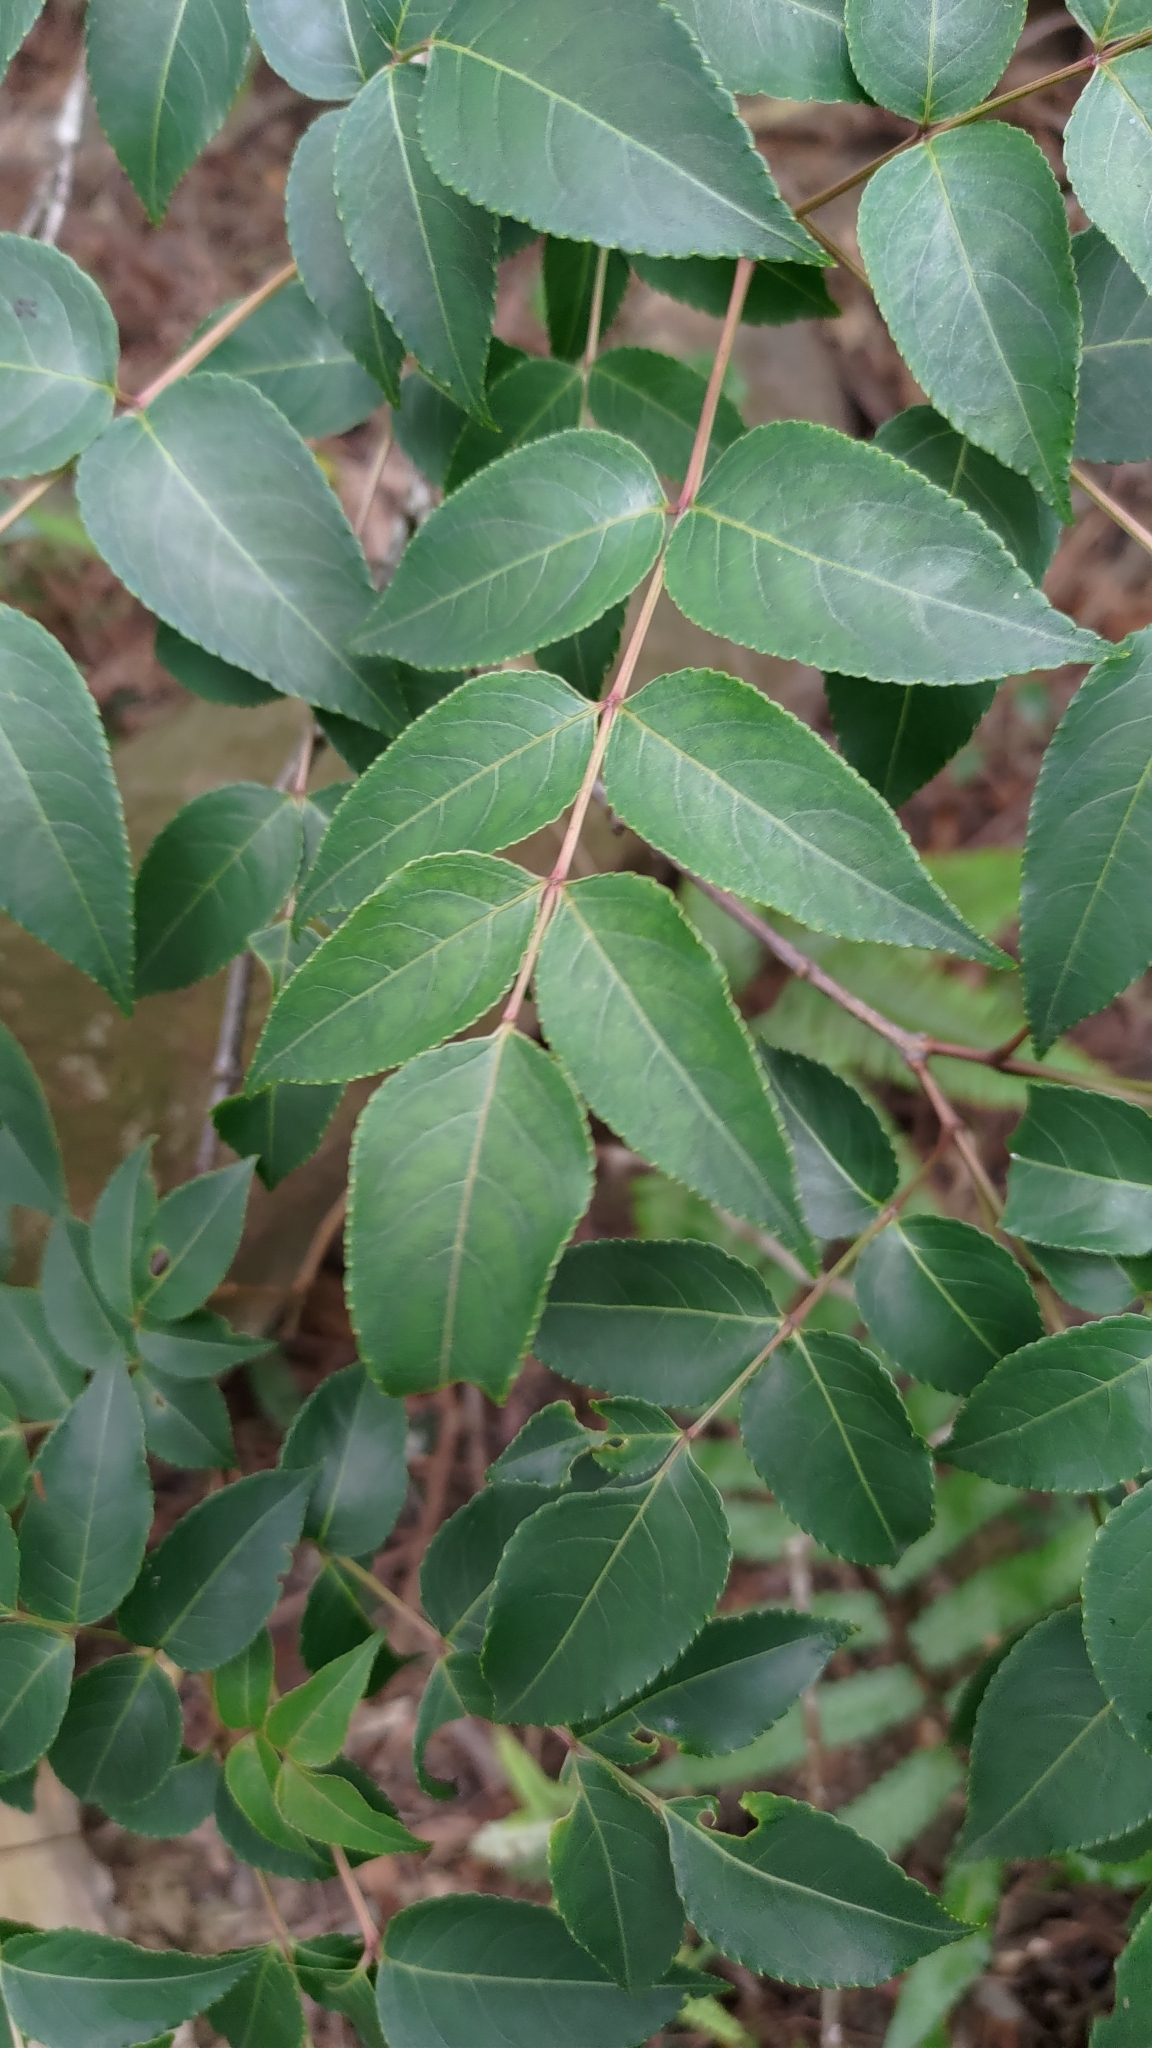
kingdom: Plantae
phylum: Tracheophyta
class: Magnoliopsida
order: Crossosomatales
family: Staphyleaceae
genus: Staphylea
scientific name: Staphylea japonica
